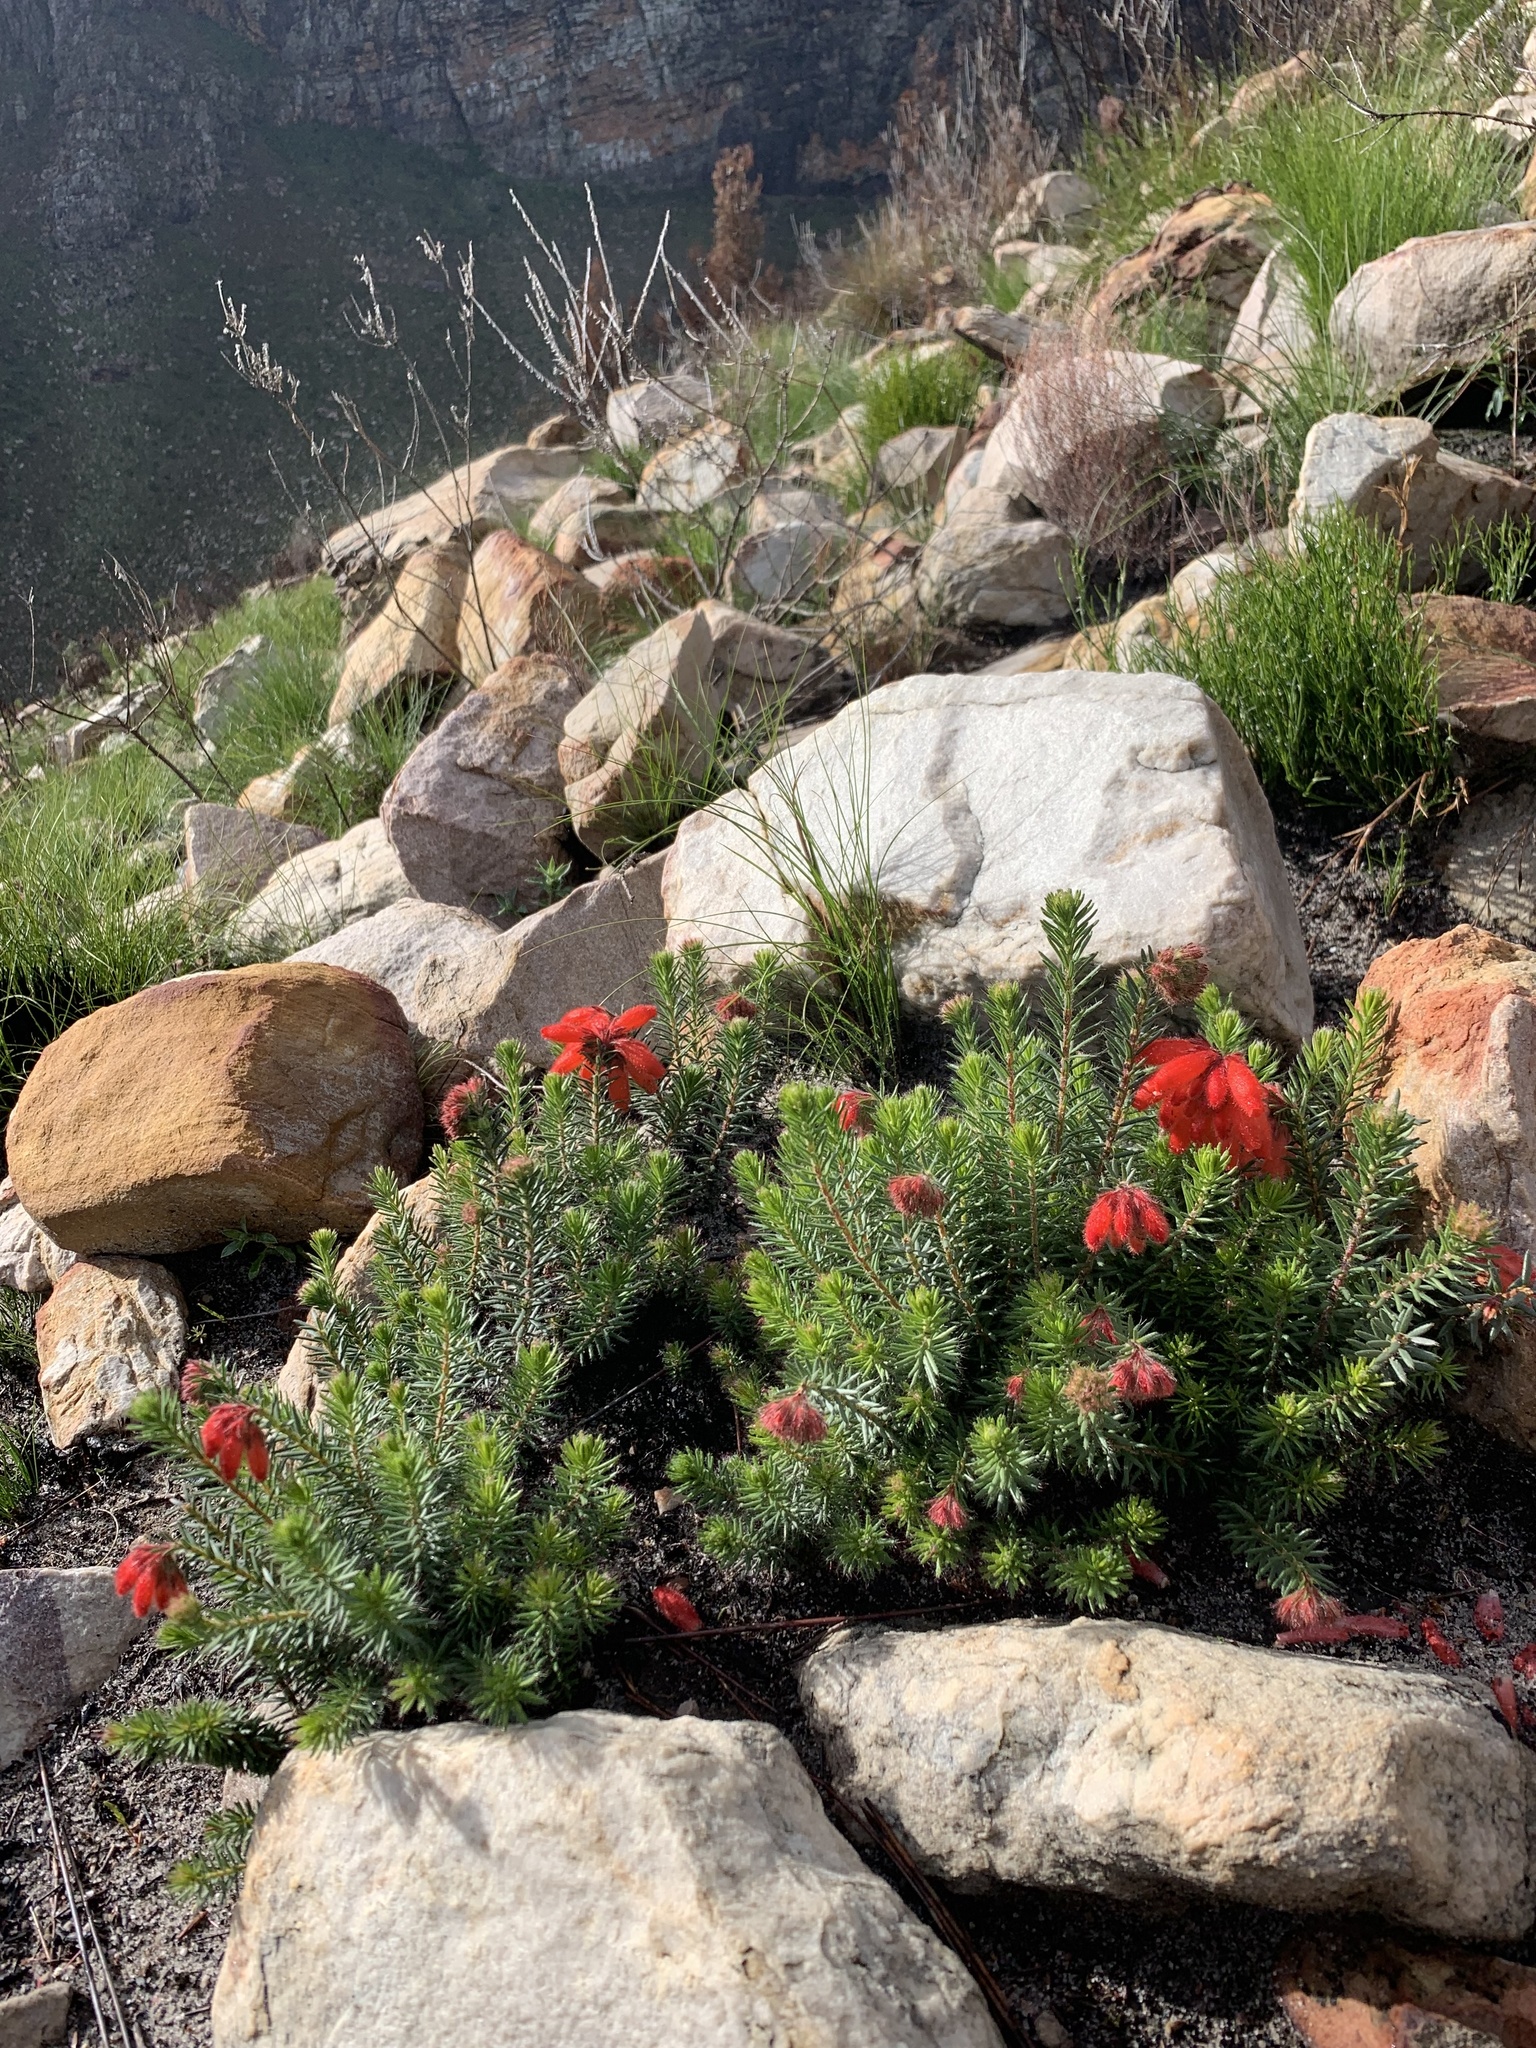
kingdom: Plantae
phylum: Tracheophyta
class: Magnoliopsida
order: Ericales
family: Ericaceae
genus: Erica
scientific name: Erica cerinthoides
